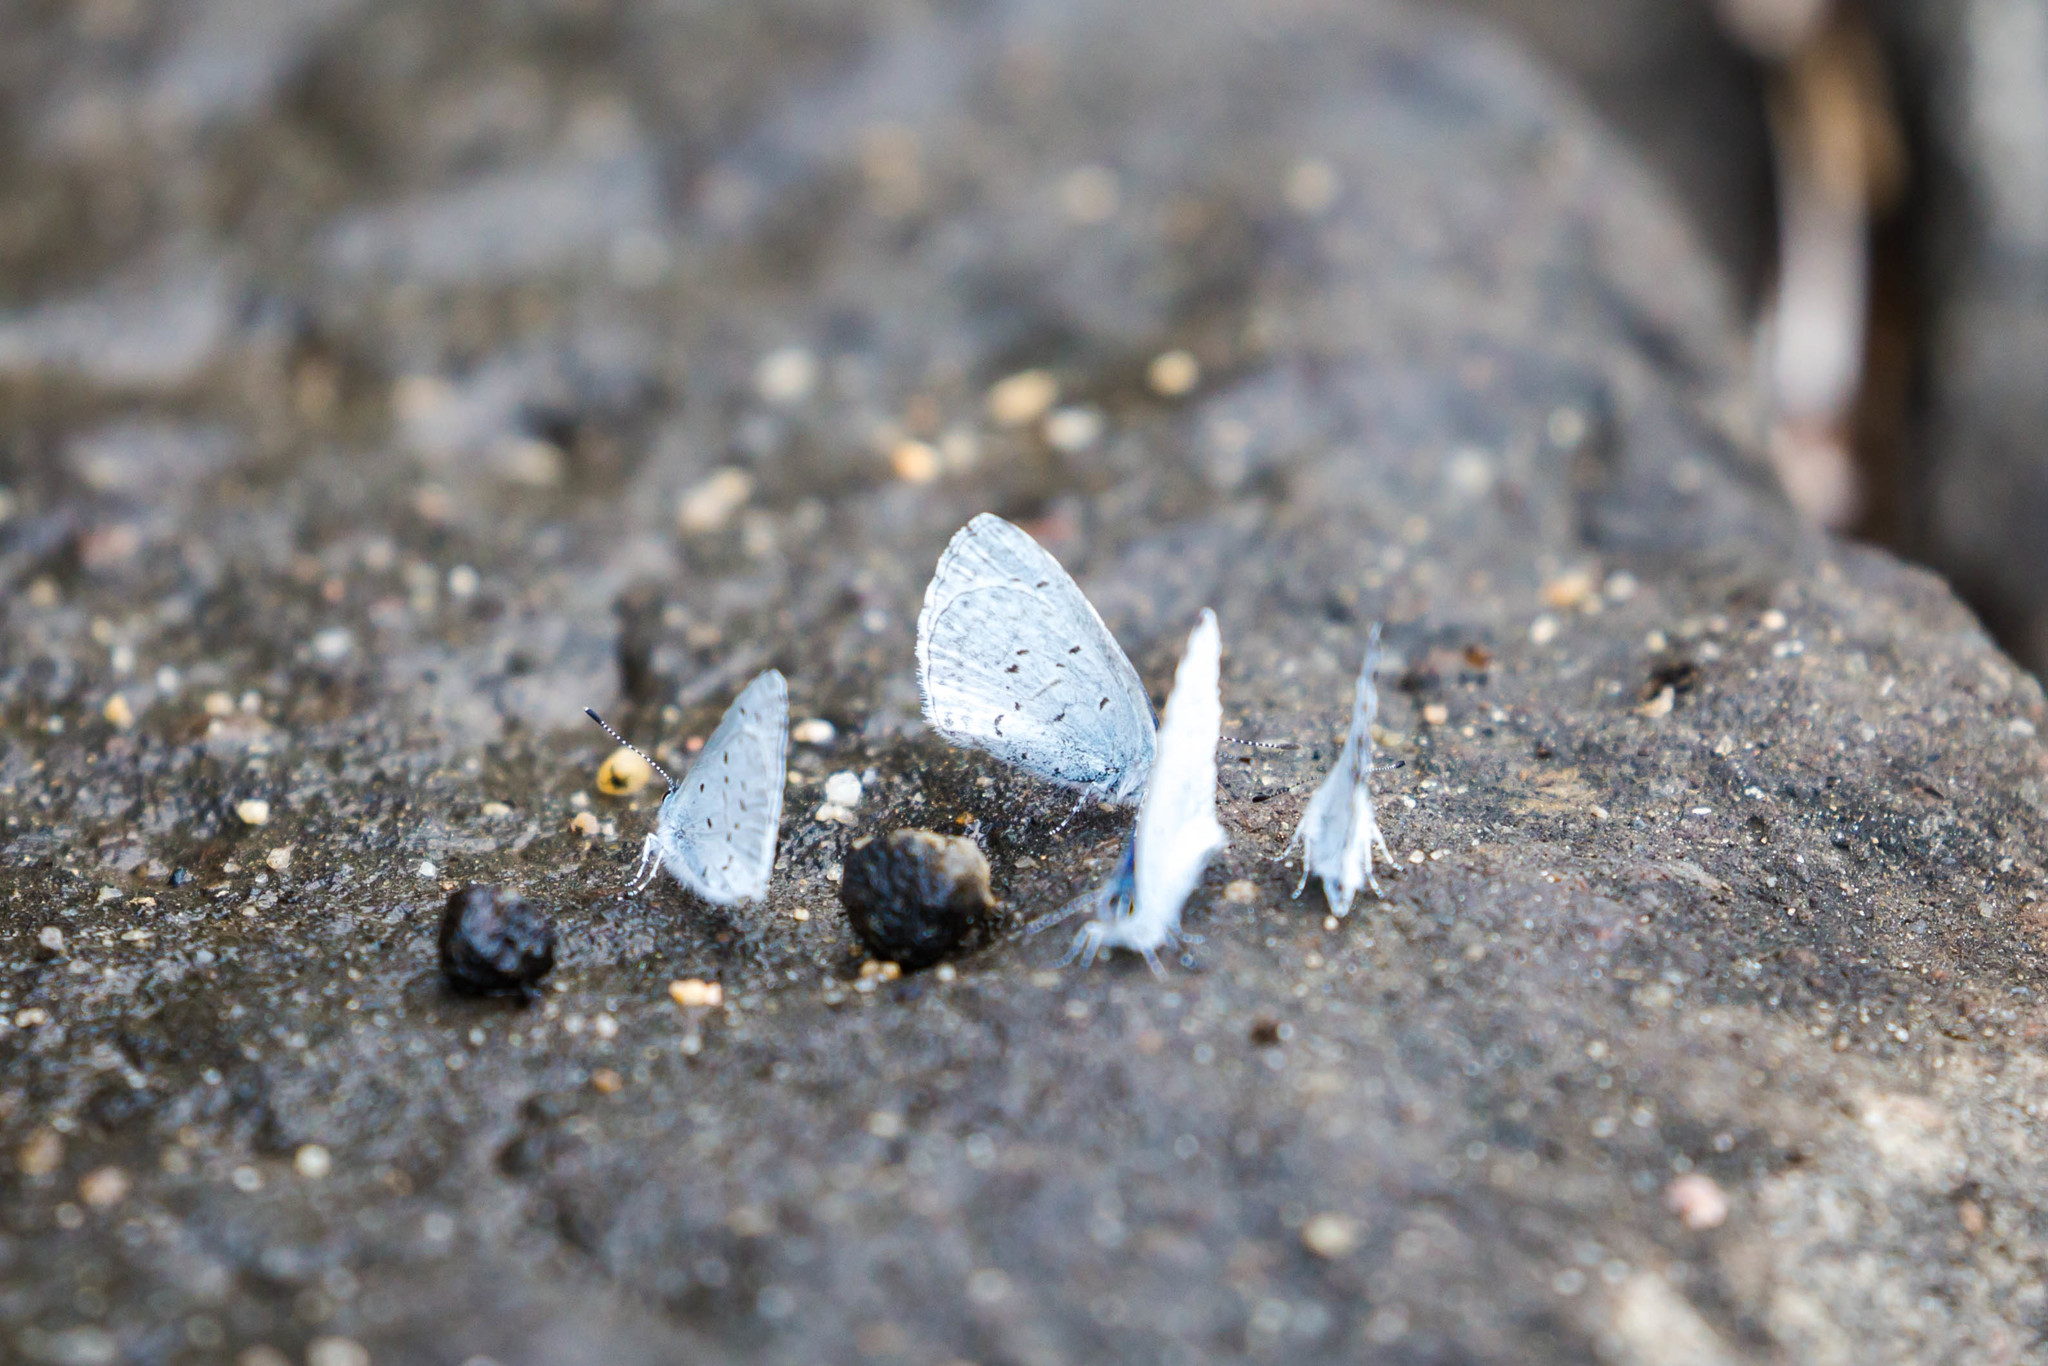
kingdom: Animalia
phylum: Arthropoda
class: Insecta
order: Lepidoptera
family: Lycaenidae
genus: Celastrina
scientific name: Celastrina ladon
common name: Spring azure
